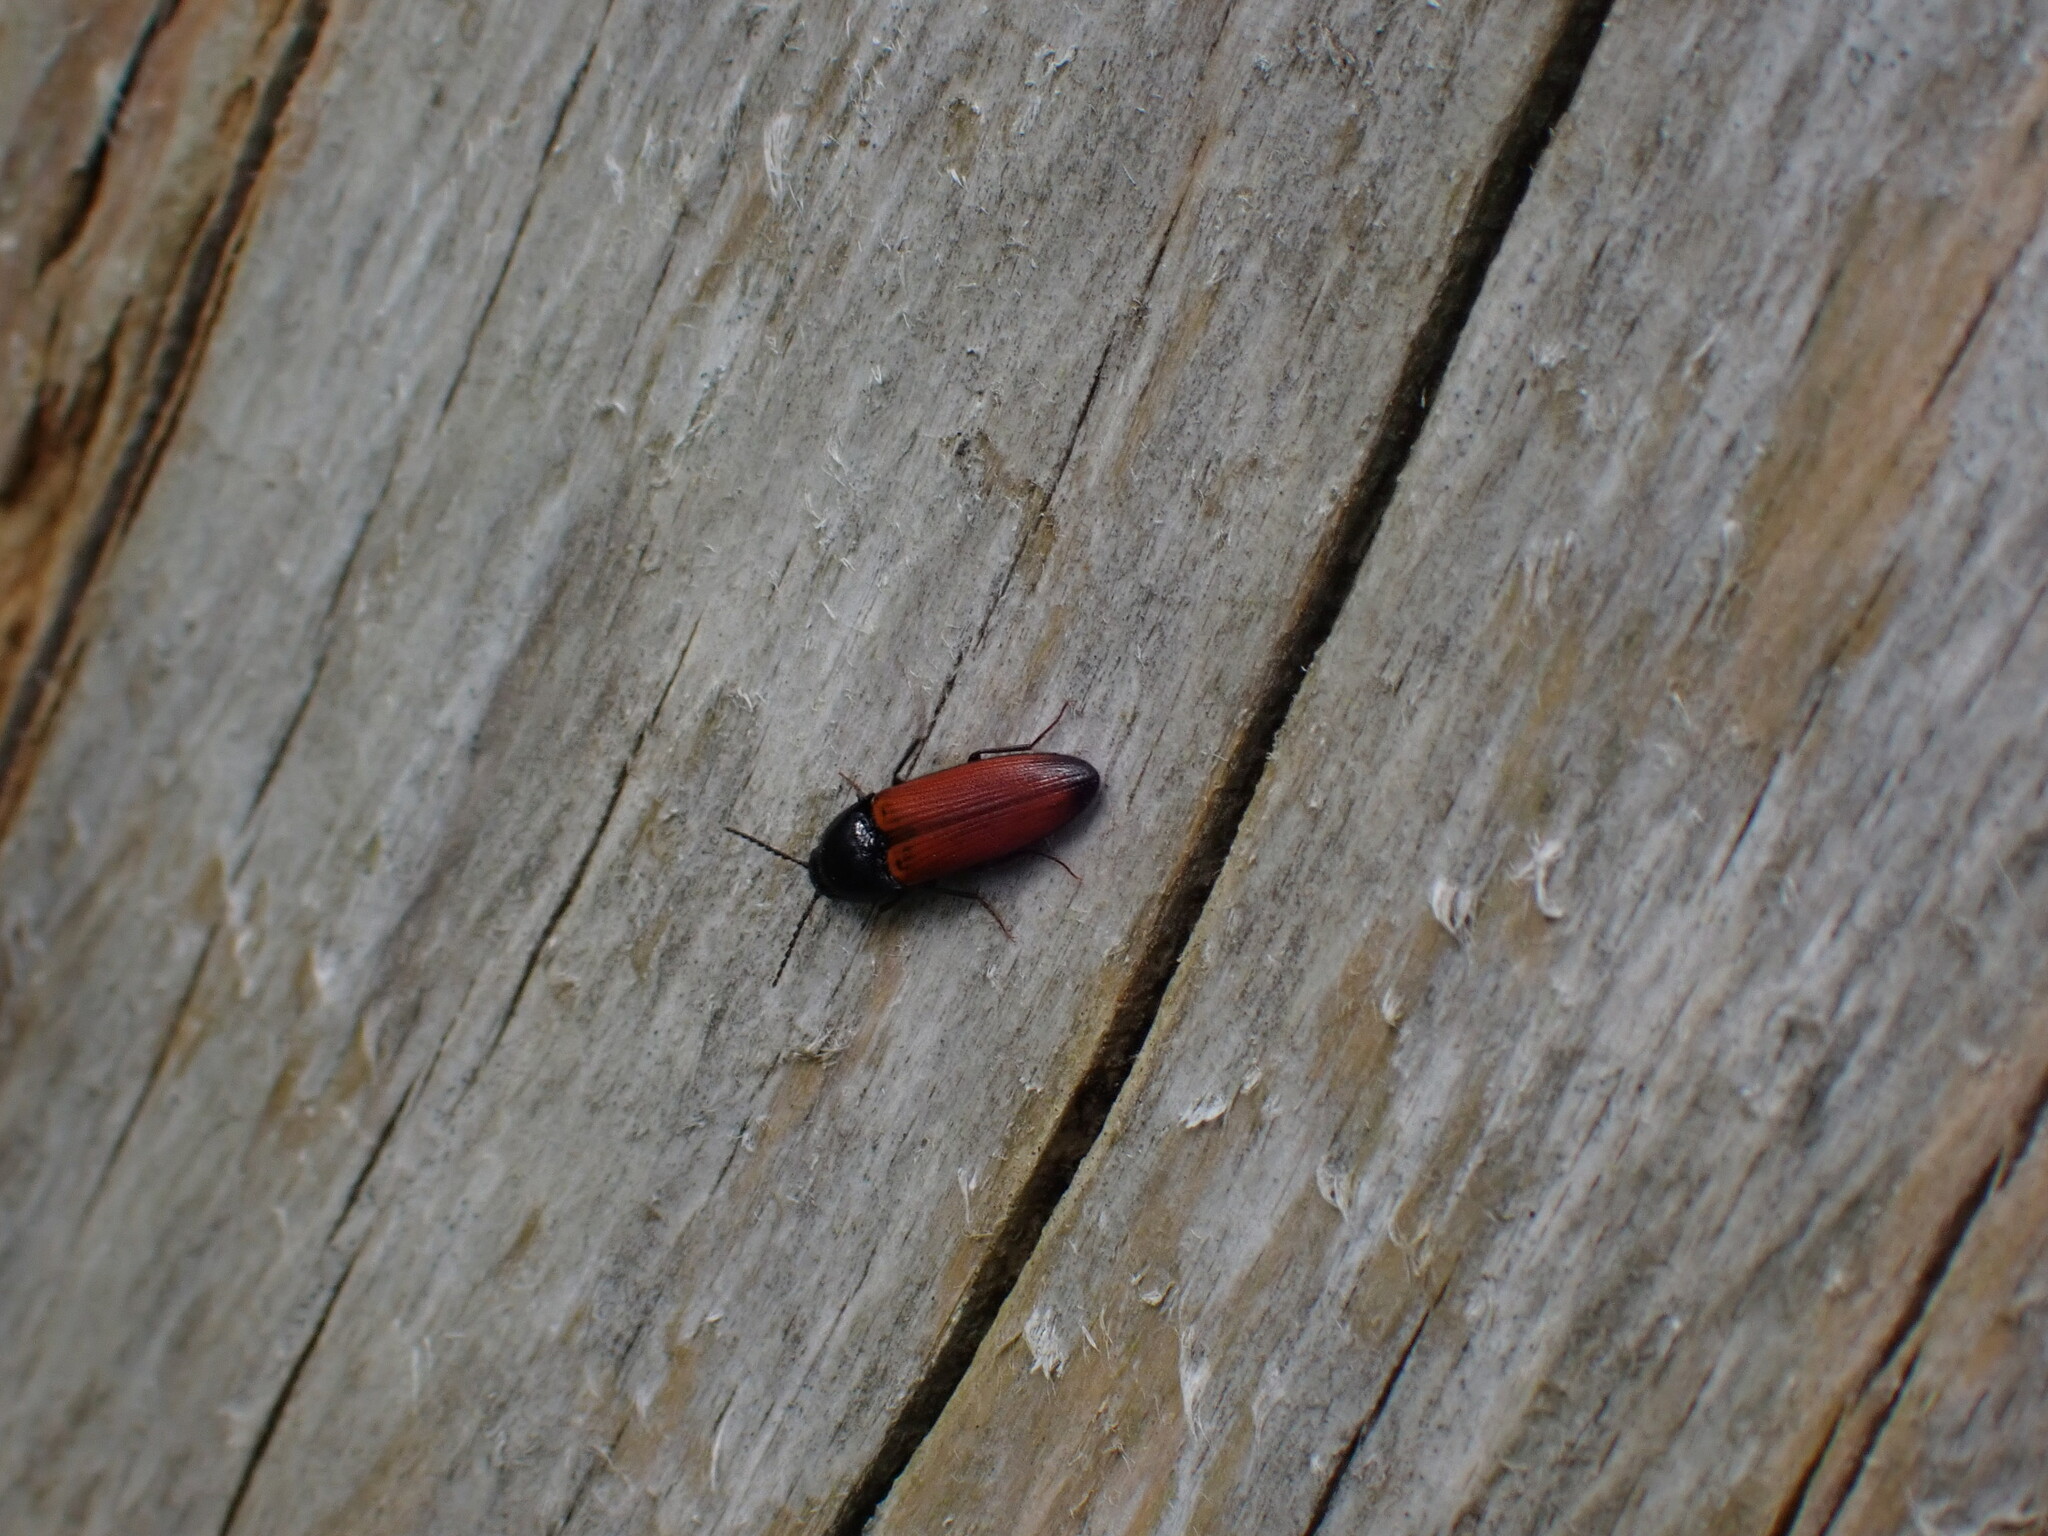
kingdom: Animalia
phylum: Arthropoda
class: Insecta
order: Coleoptera
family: Elateridae
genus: Ampedus
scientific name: Ampedus elongatulus
